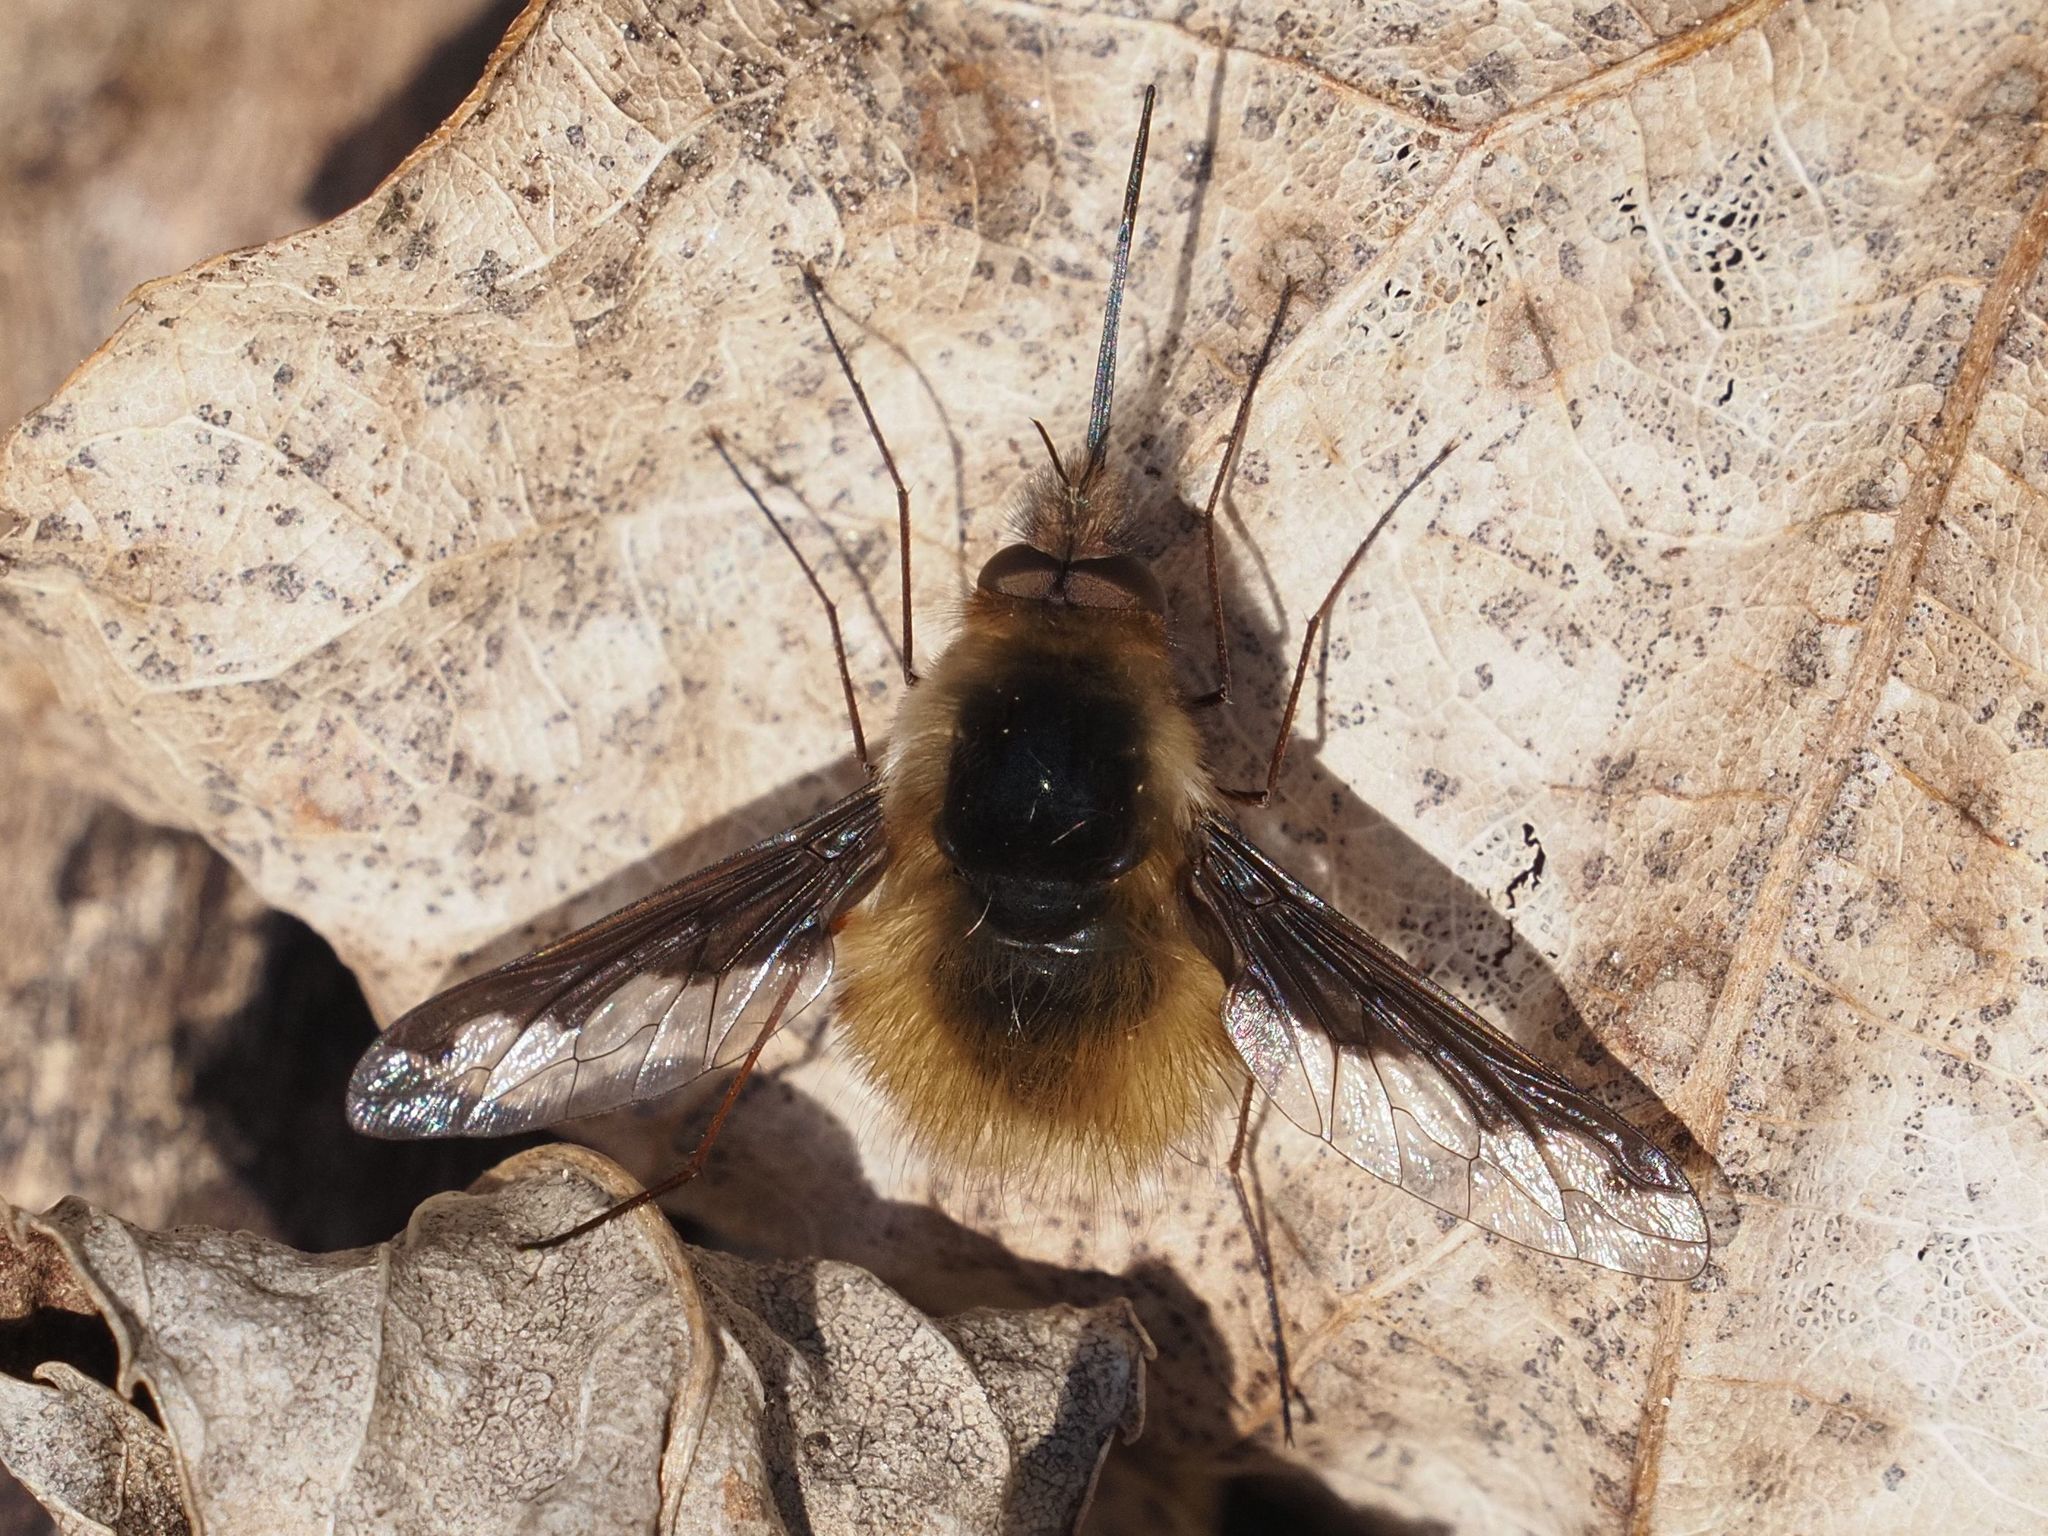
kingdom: Animalia
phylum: Arthropoda
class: Insecta
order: Diptera
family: Bombyliidae
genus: Bombylius
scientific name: Bombylius major
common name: Bee fly
